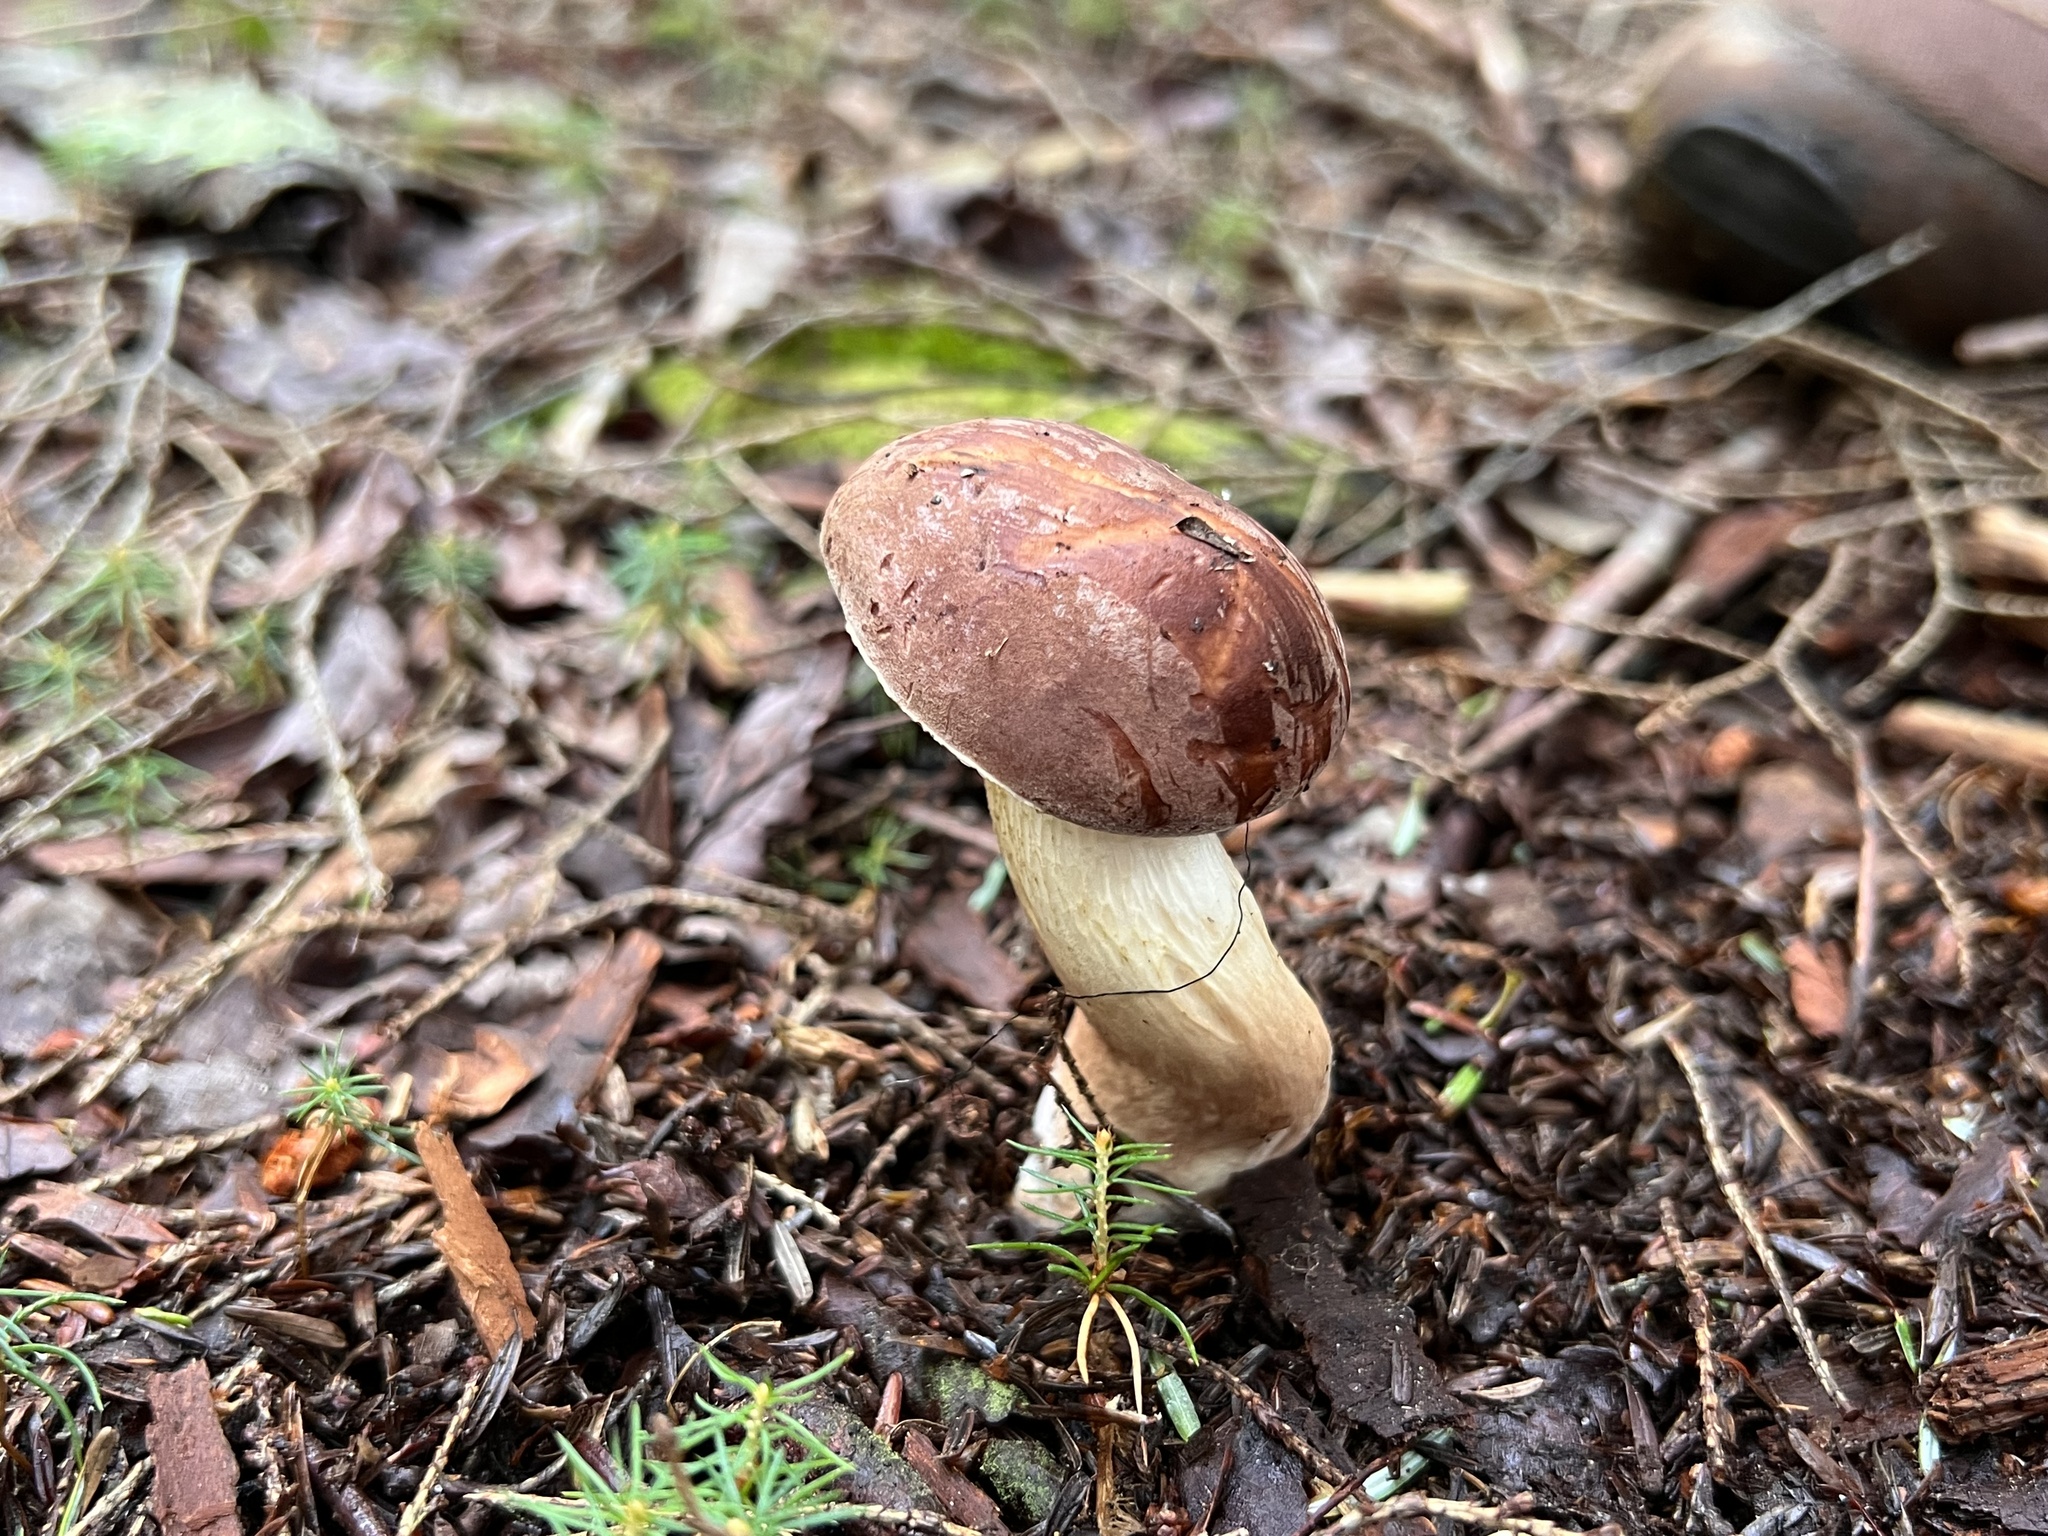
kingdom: Fungi
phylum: Basidiomycota
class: Agaricomycetes
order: Boletales
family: Boletaceae
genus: Tylopilus
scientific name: Tylopilus felleus
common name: Bitter bolete
